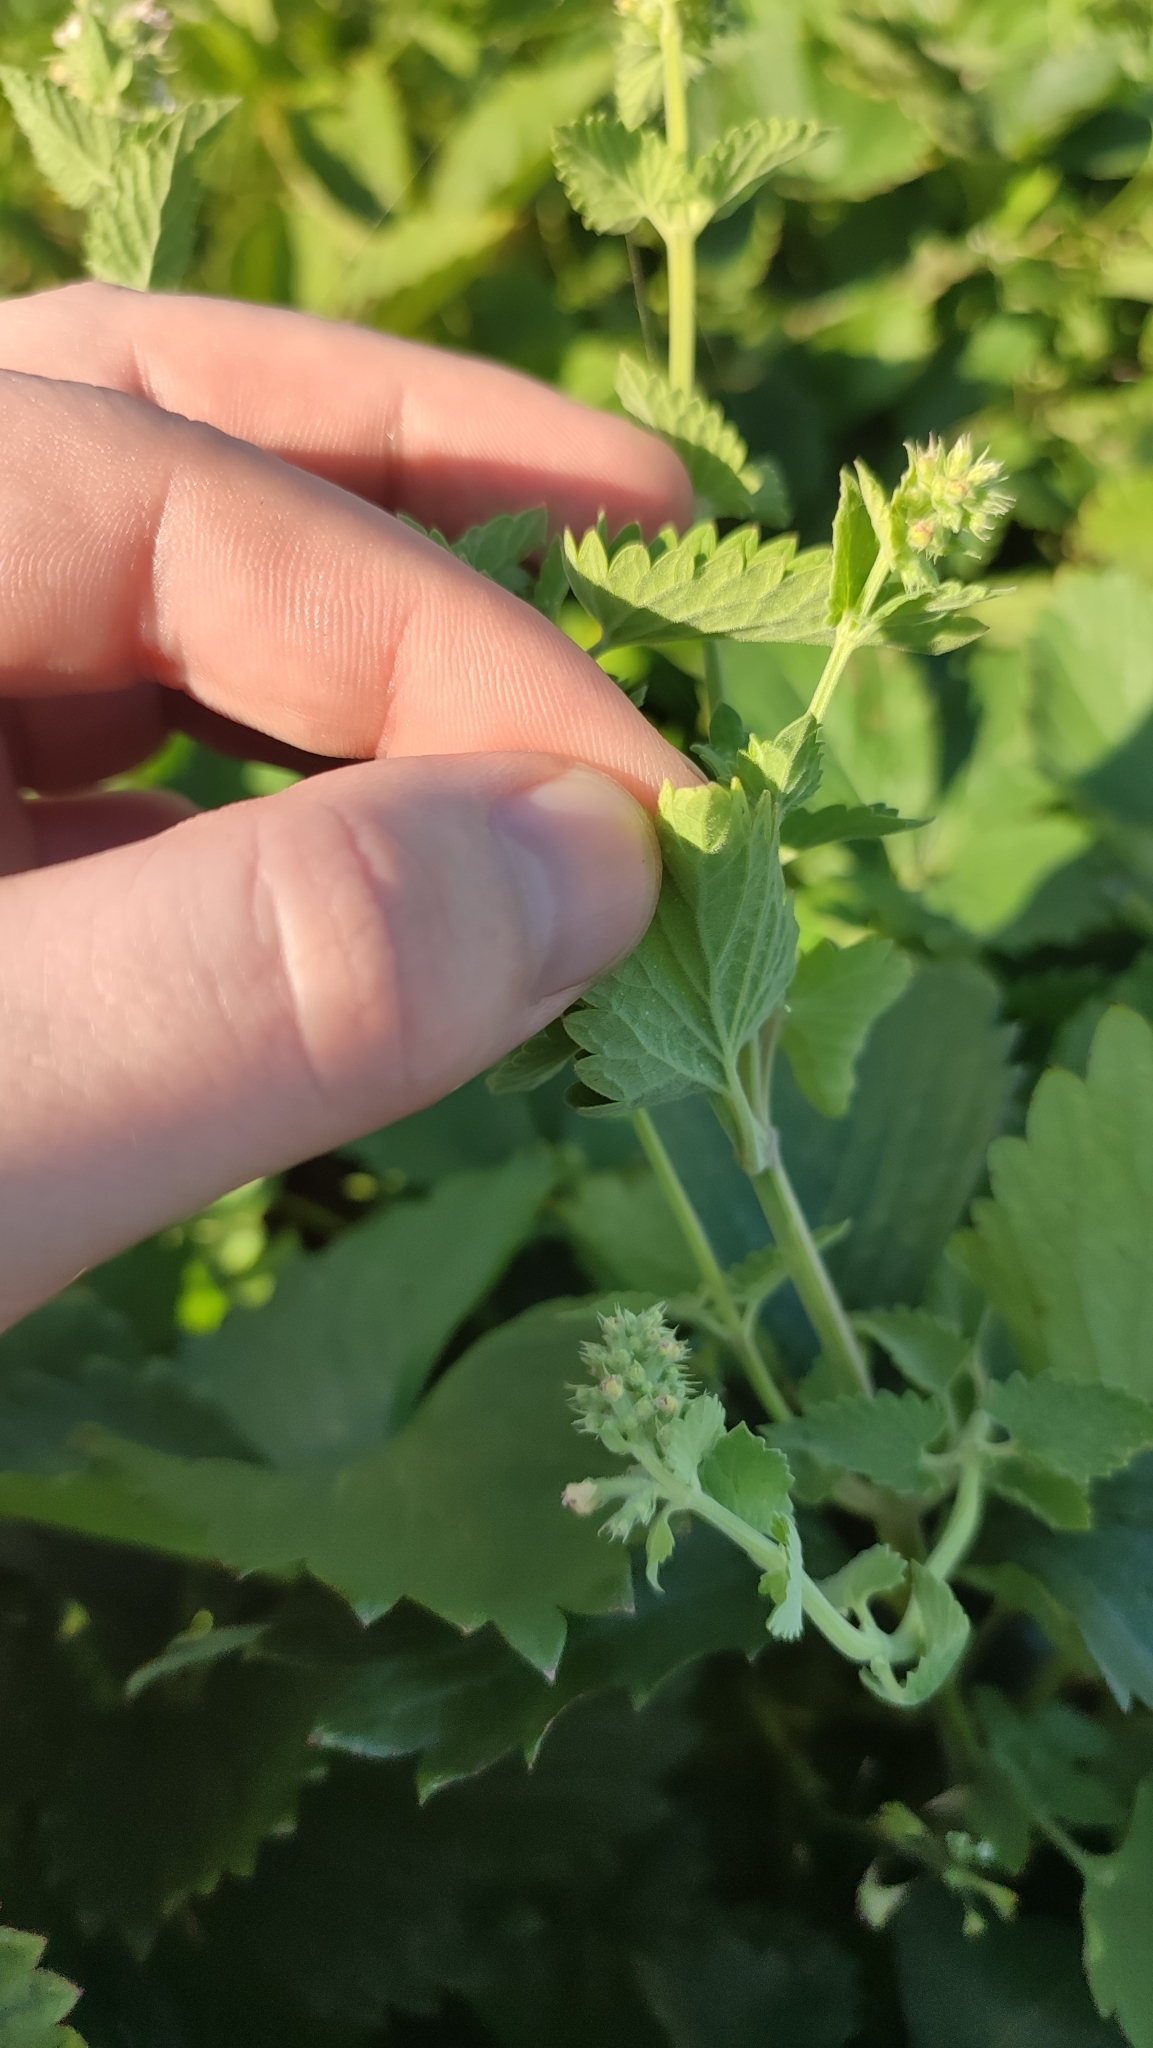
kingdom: Plantae
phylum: Tracheophyta
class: Magnoliopsida
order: Lamiales
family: Lamiaceae
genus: Nepeta
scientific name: Nepeta cataria
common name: Catnip
